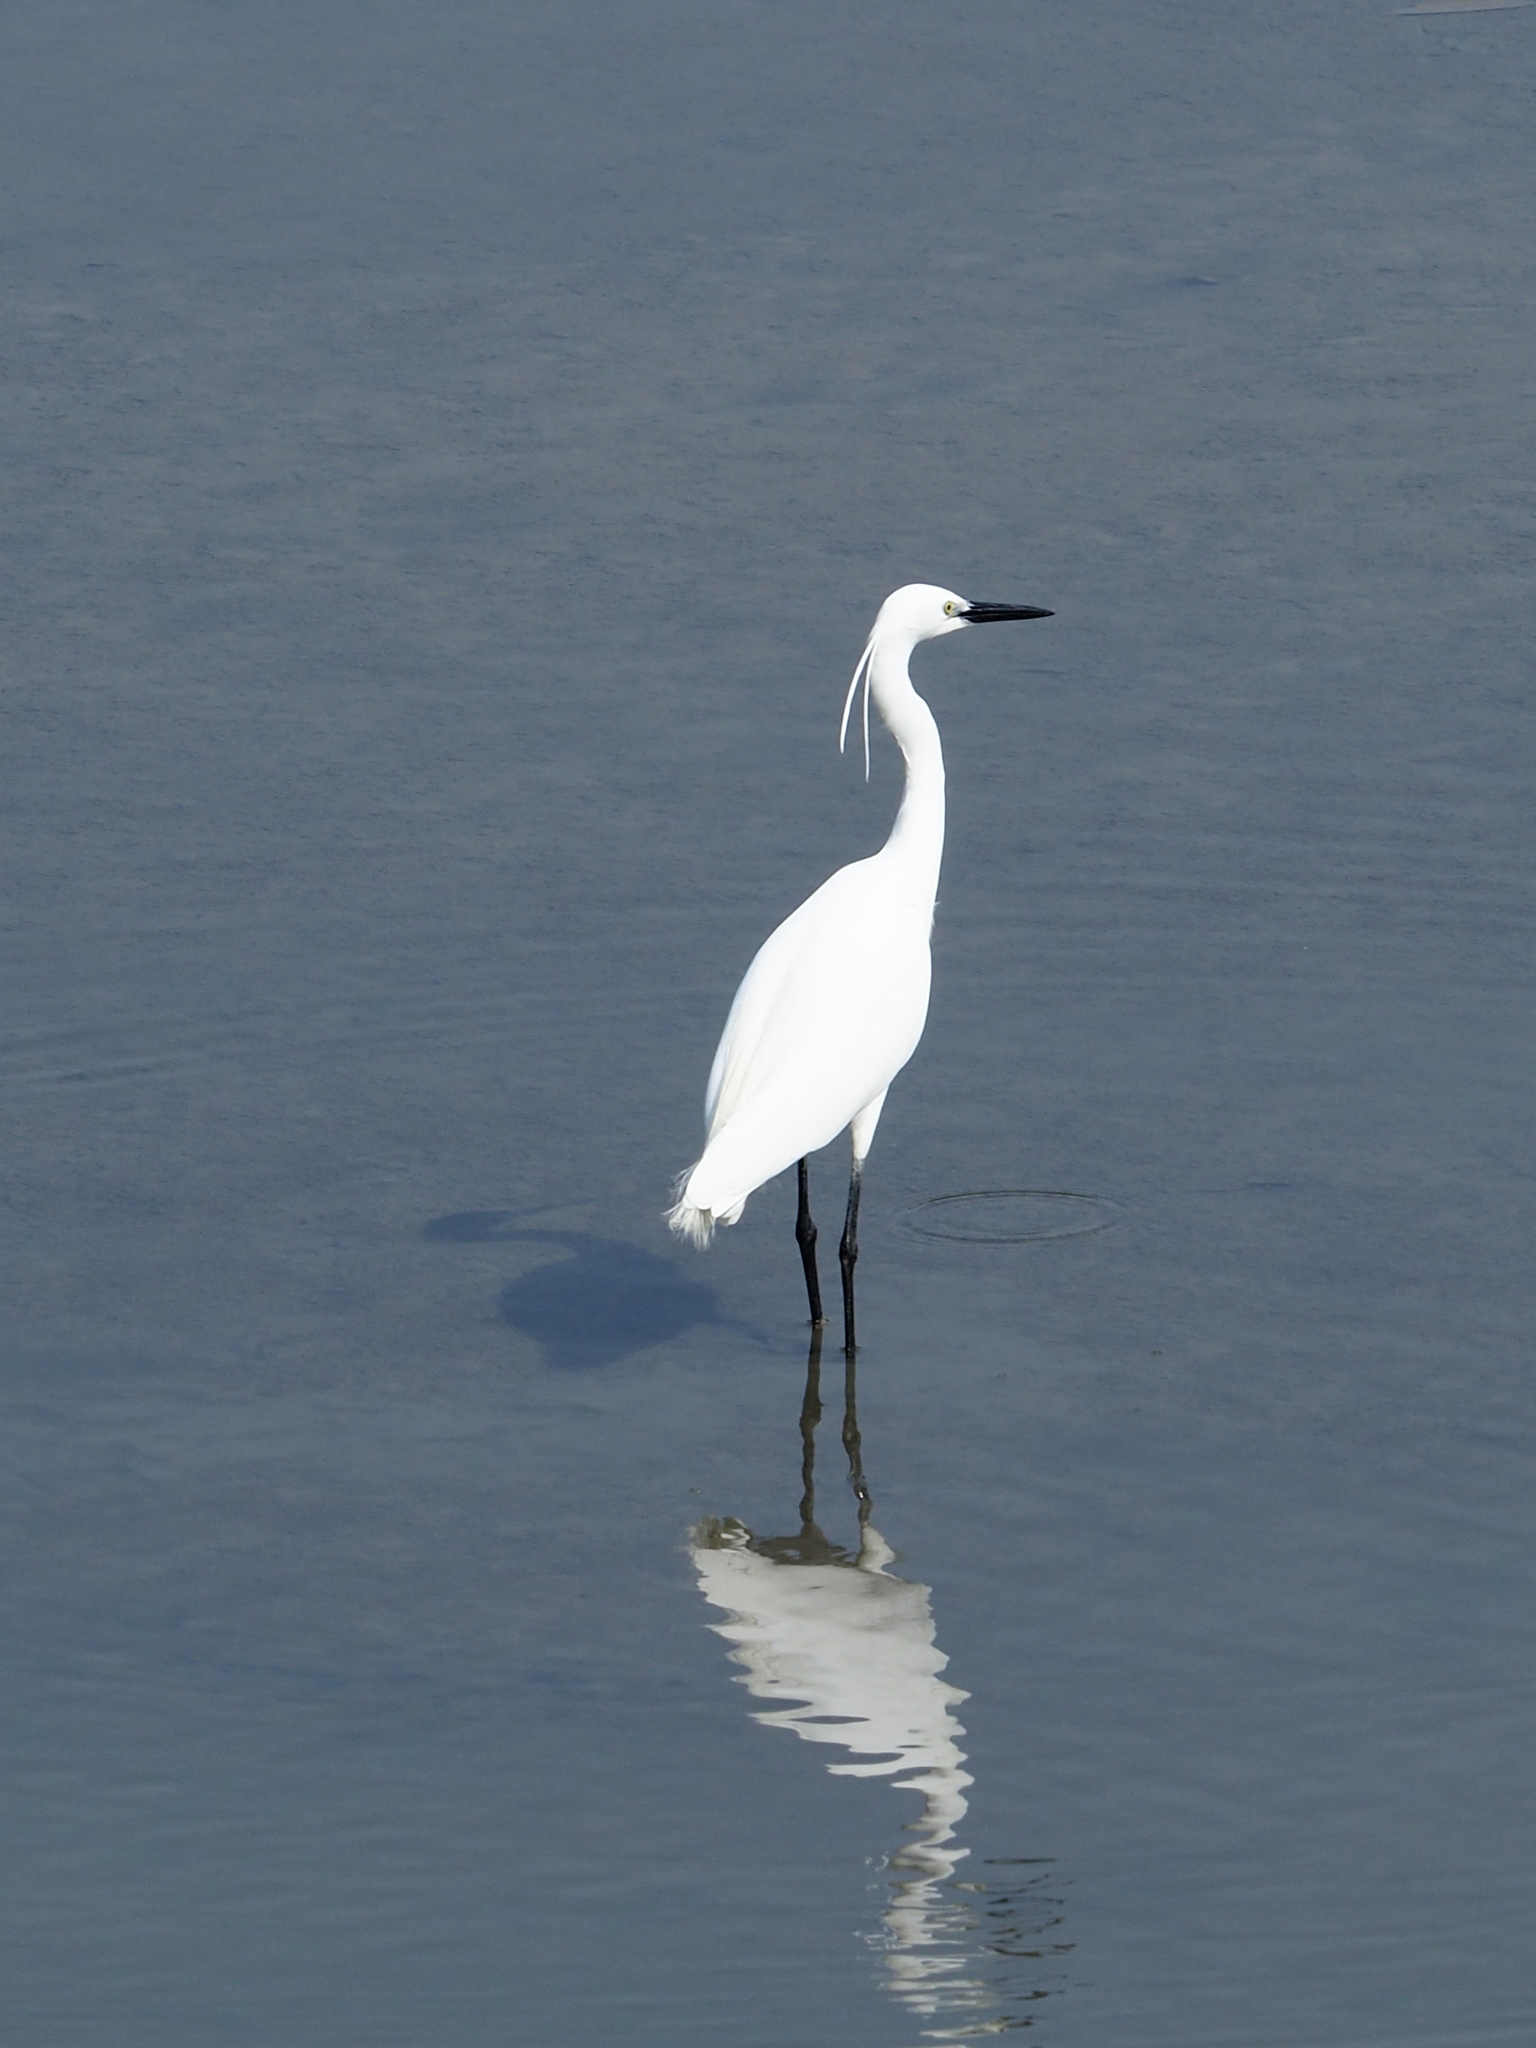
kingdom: Animalia
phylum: Chordata
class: Aves
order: Pelecaniformes
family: Ardeidae
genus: Egretta
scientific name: Egretta garzetta
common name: Little egret
